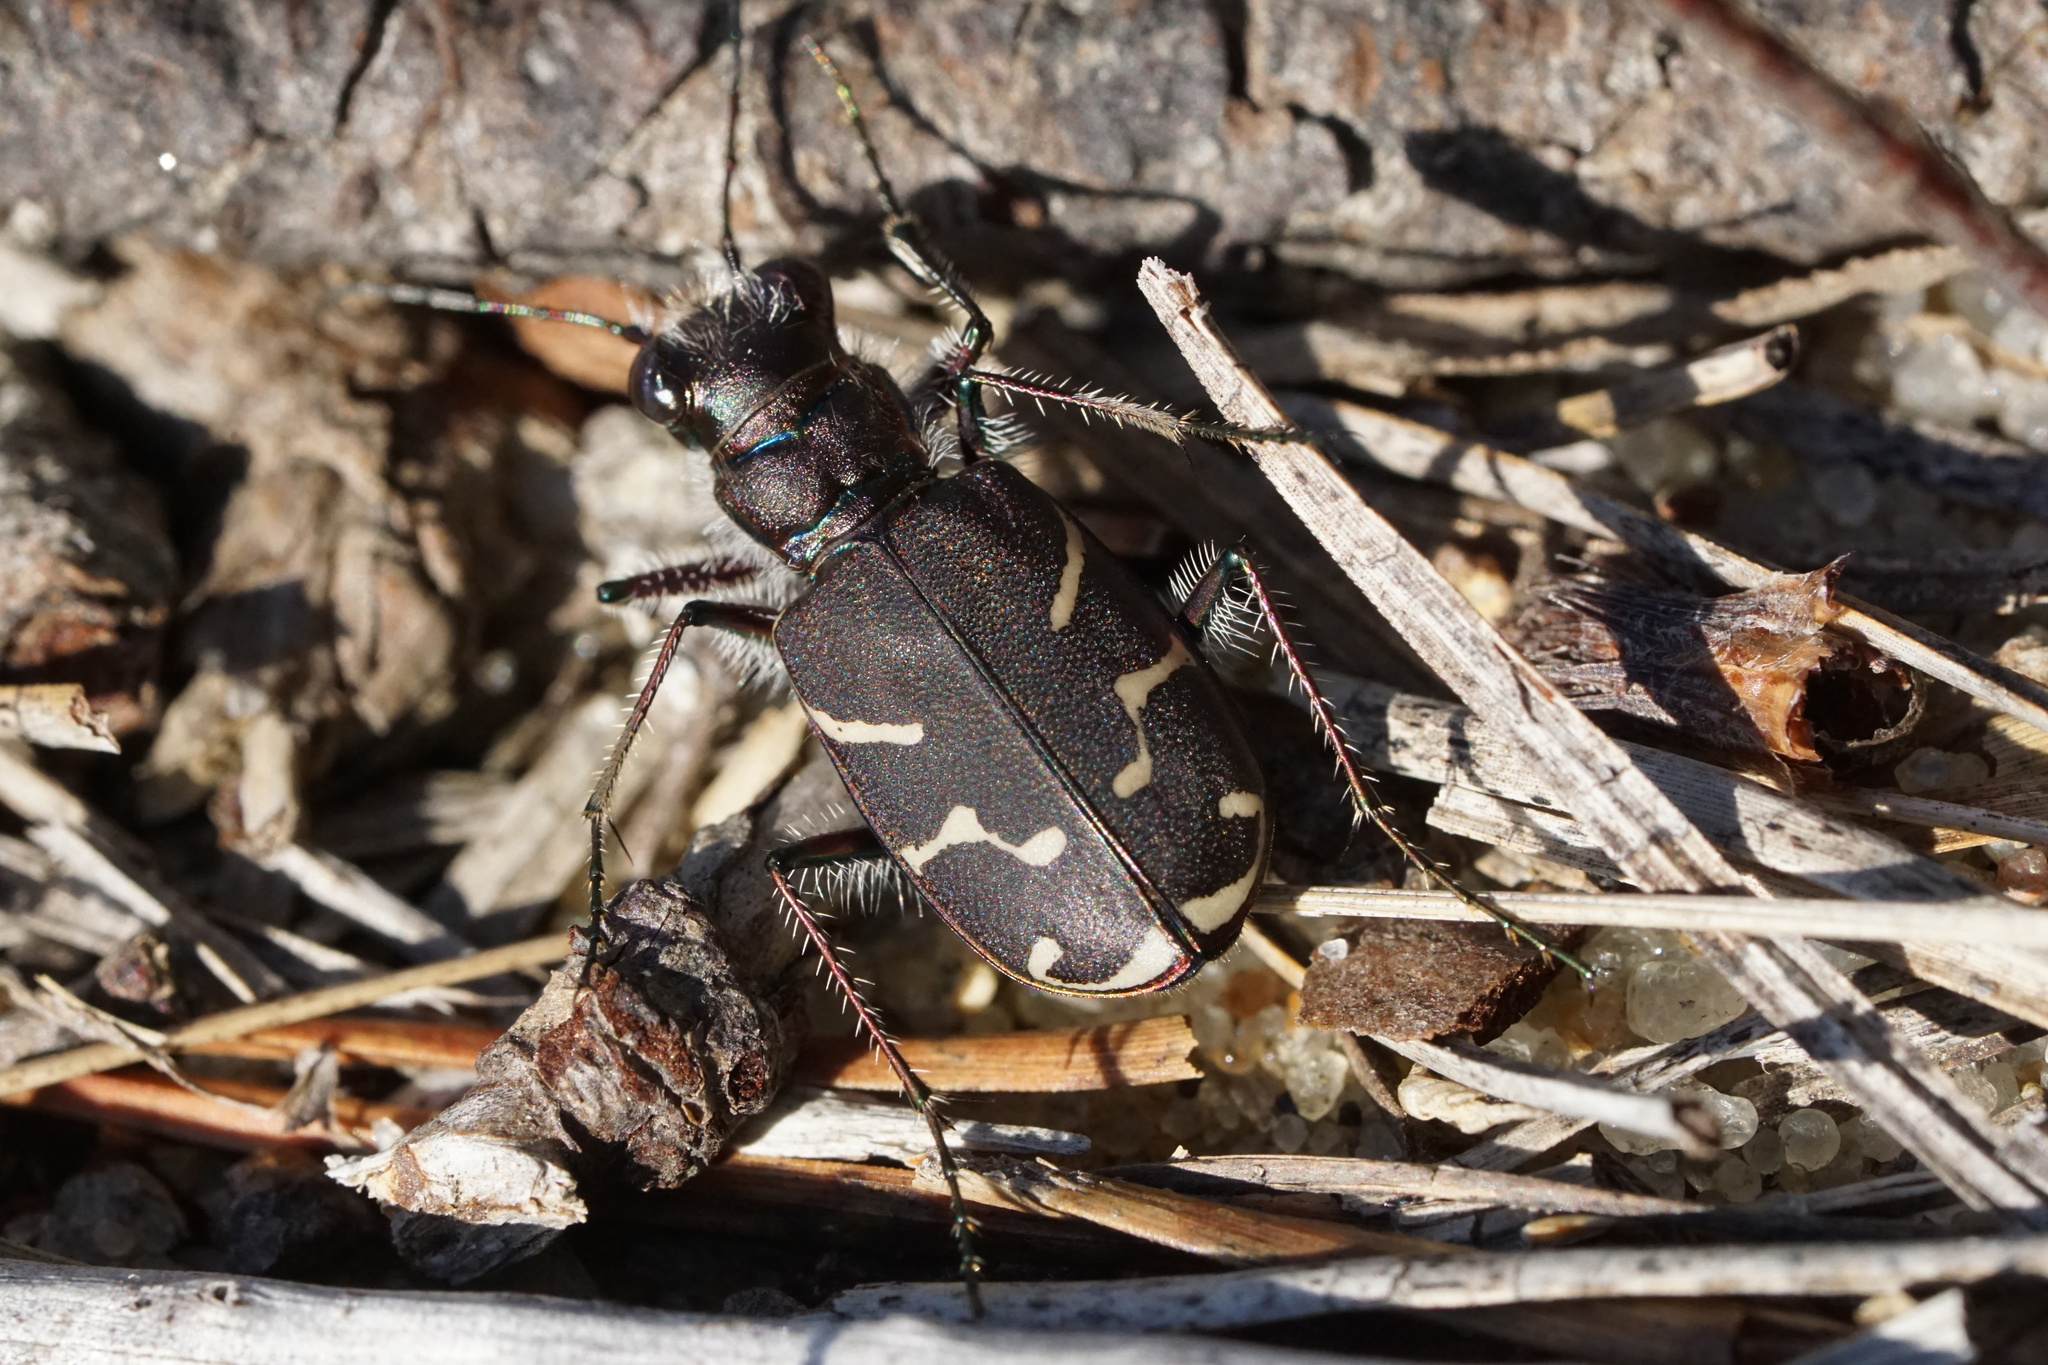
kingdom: Animalia
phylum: Arthropoda
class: Insecta
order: Coleoptera
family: Carabidae
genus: Cicindela
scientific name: Cicindela tranquebarica
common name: Oblique-lined tiger beetle
